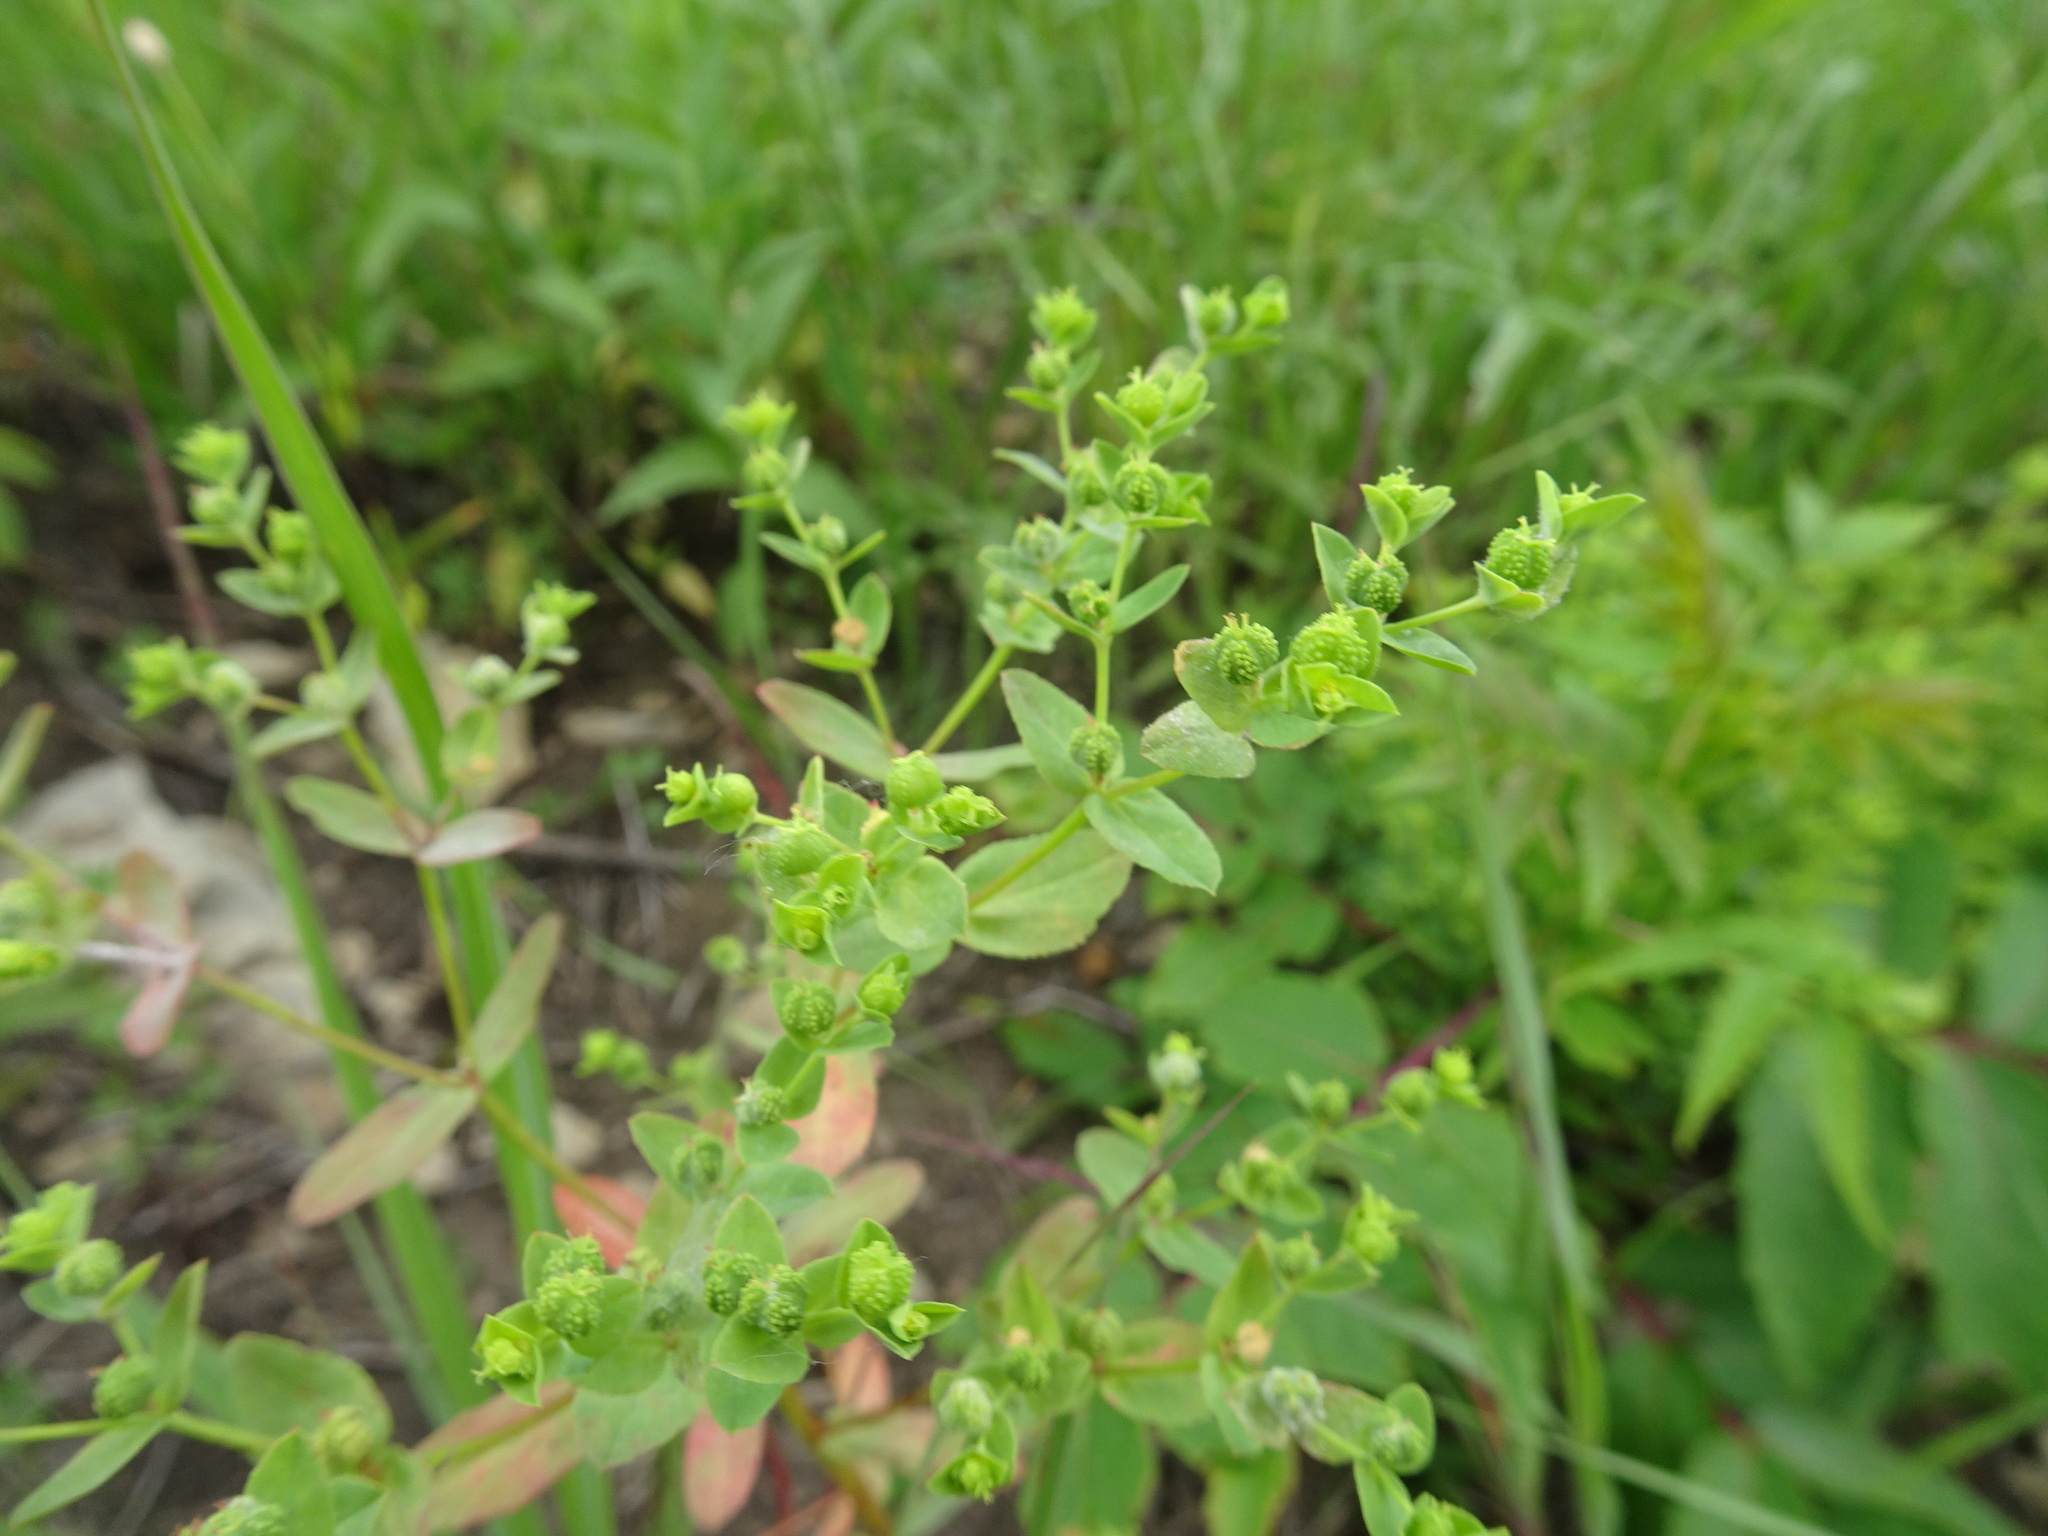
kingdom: Plantae
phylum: Tracheophyta
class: Magnoliopsida
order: Malpighiales
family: Euphorbiaceae
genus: Euphorbia
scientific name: Euphorbia spathulata
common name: Blunt spurge
